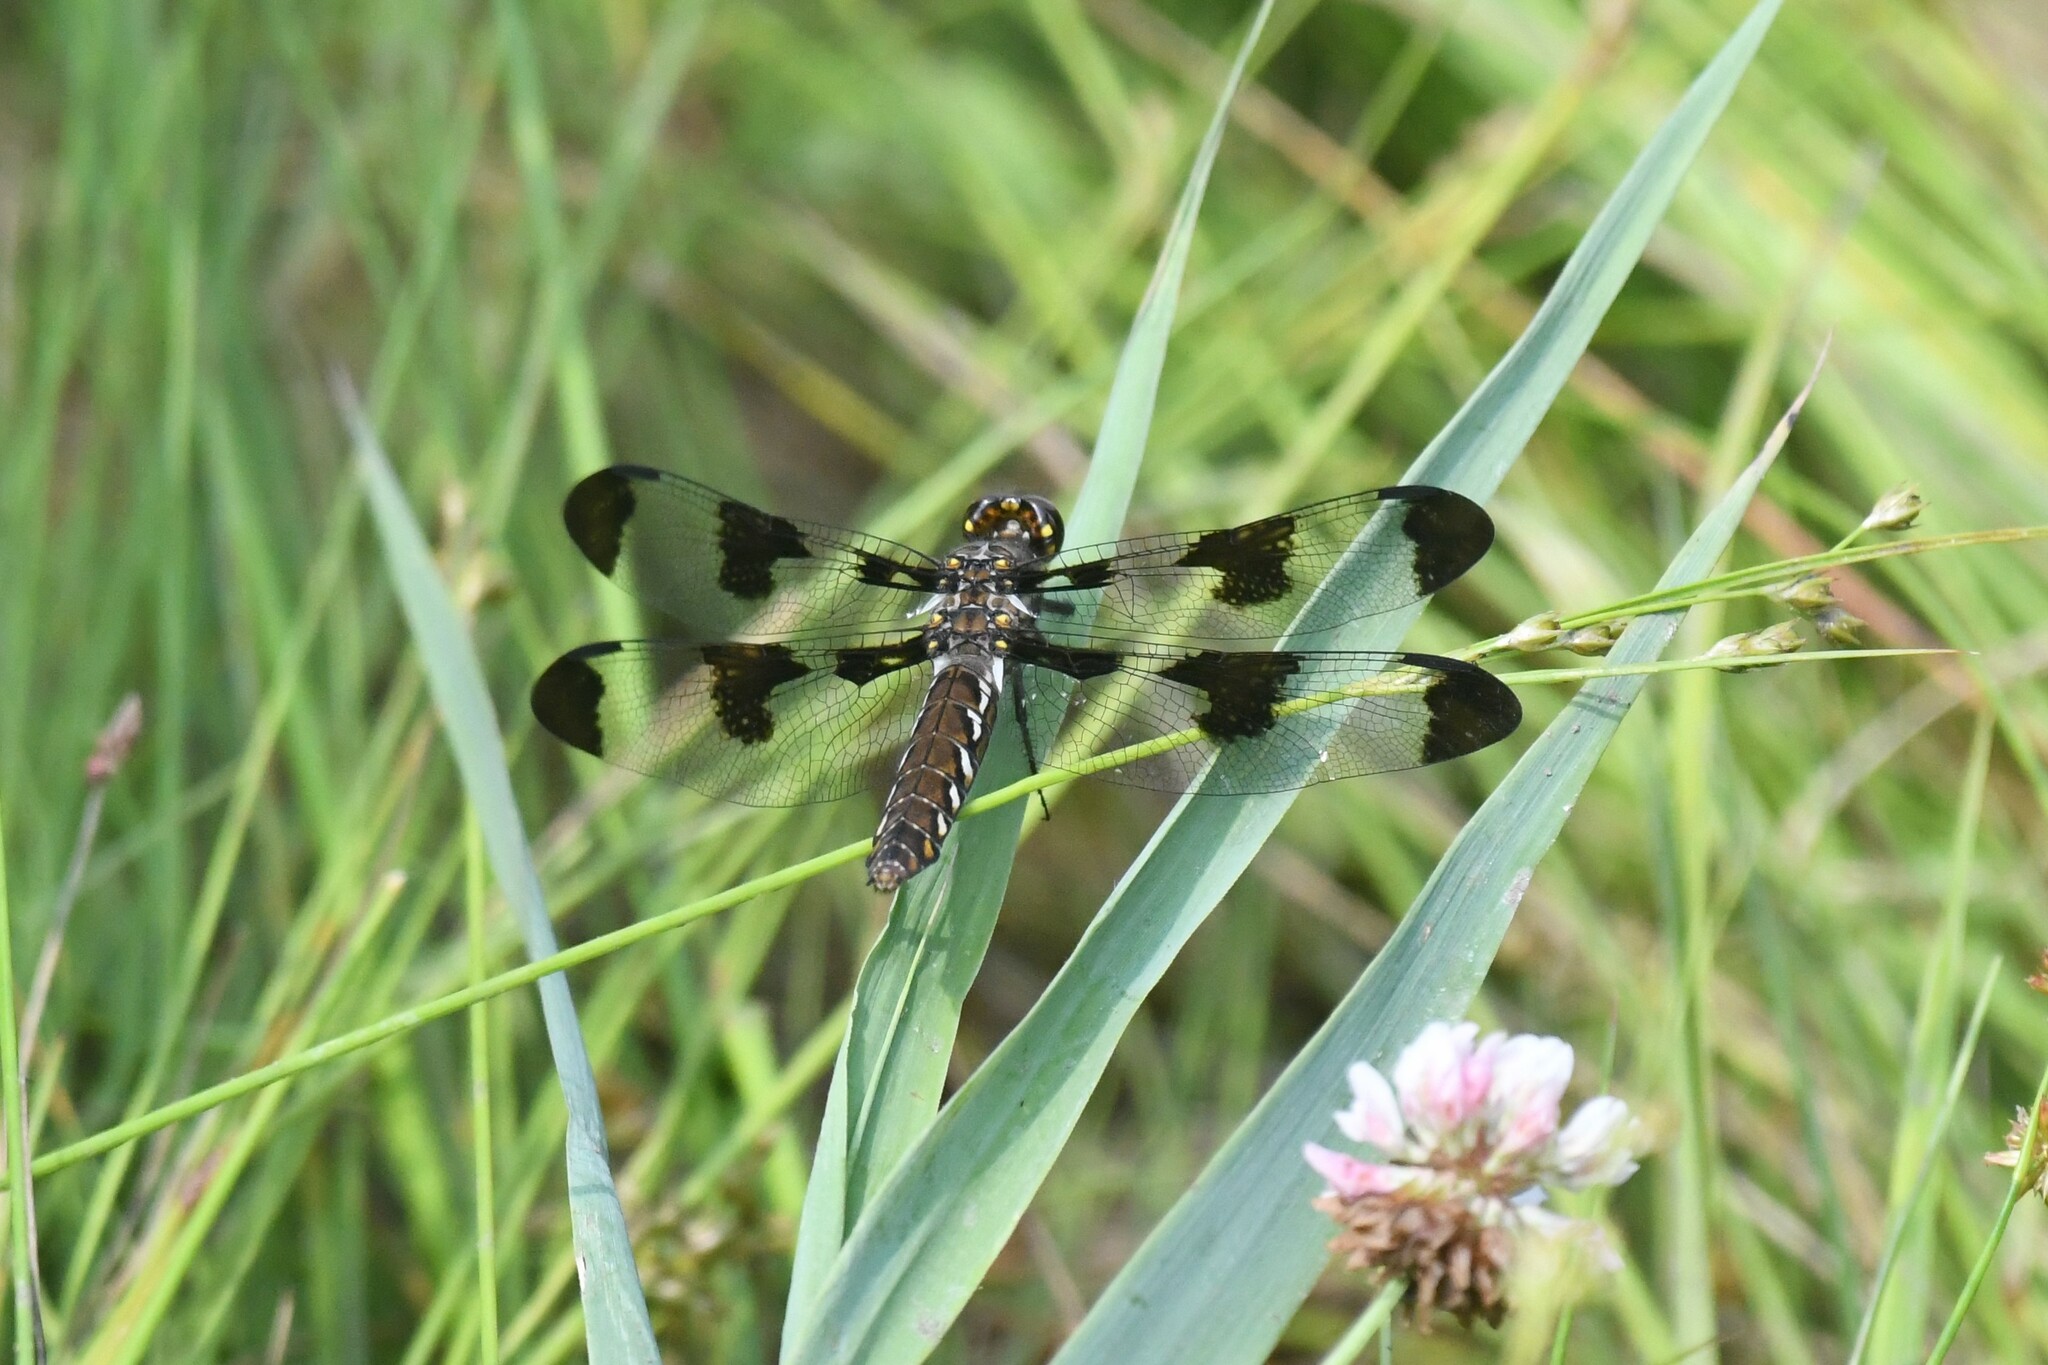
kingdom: Animalia
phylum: Arthropoda
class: Insecta
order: Odonata
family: Libellulidae
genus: Plathemis
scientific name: Plathemis lydia
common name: Common whitetail
